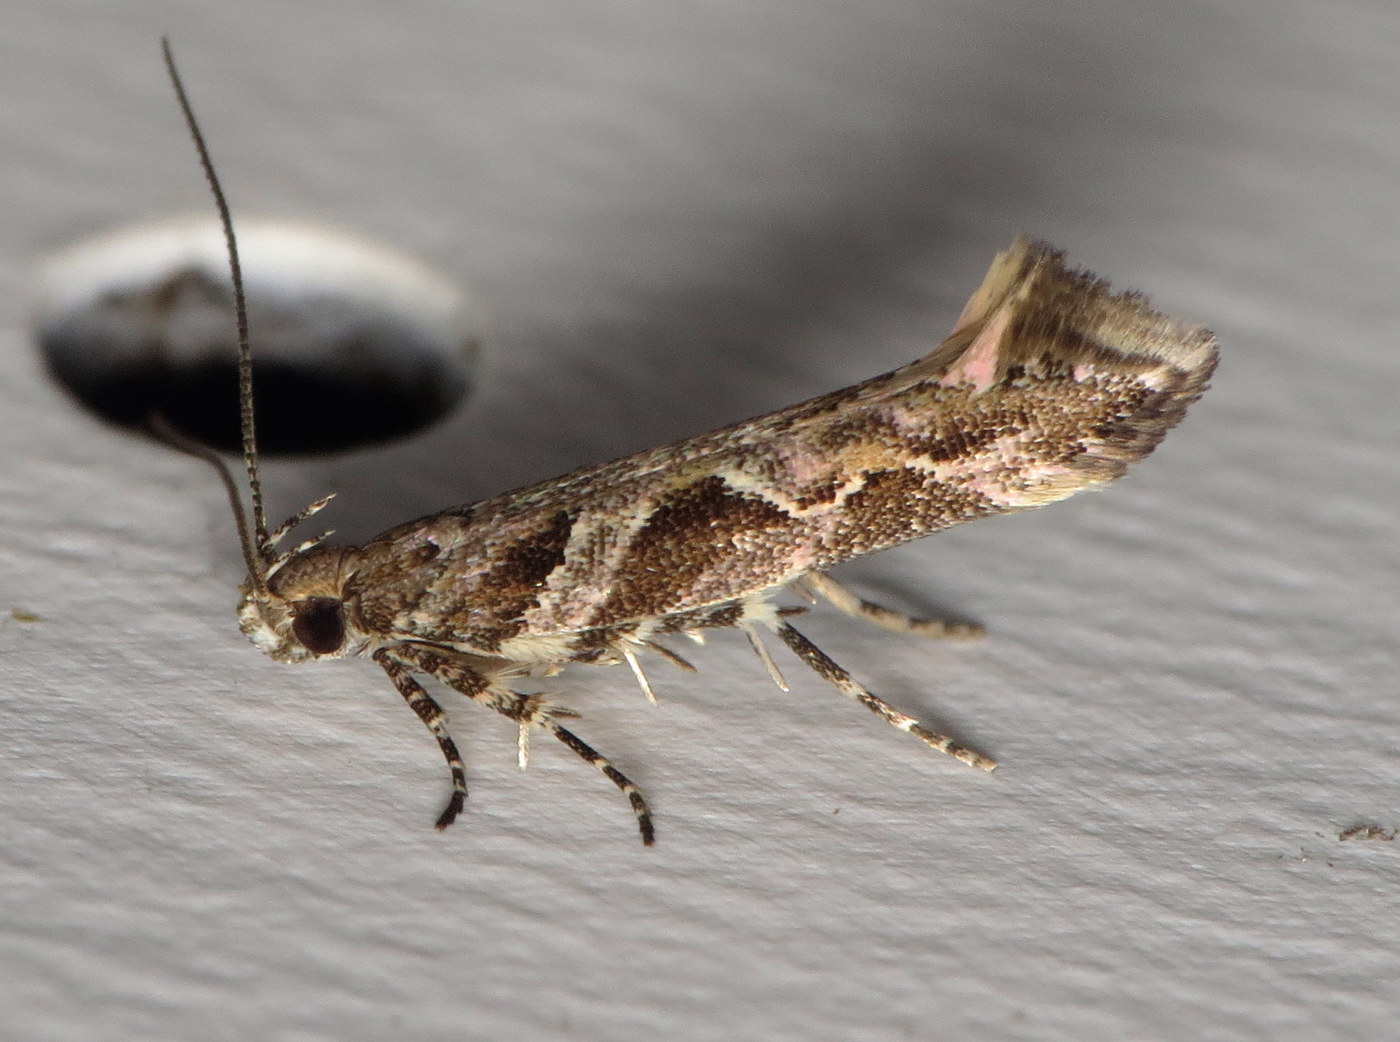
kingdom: Animalia
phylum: Arthropoda
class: Insecta
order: Lepidoptera
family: Gelechiidae
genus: Aristotelia
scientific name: Aristotelia fungivorella
